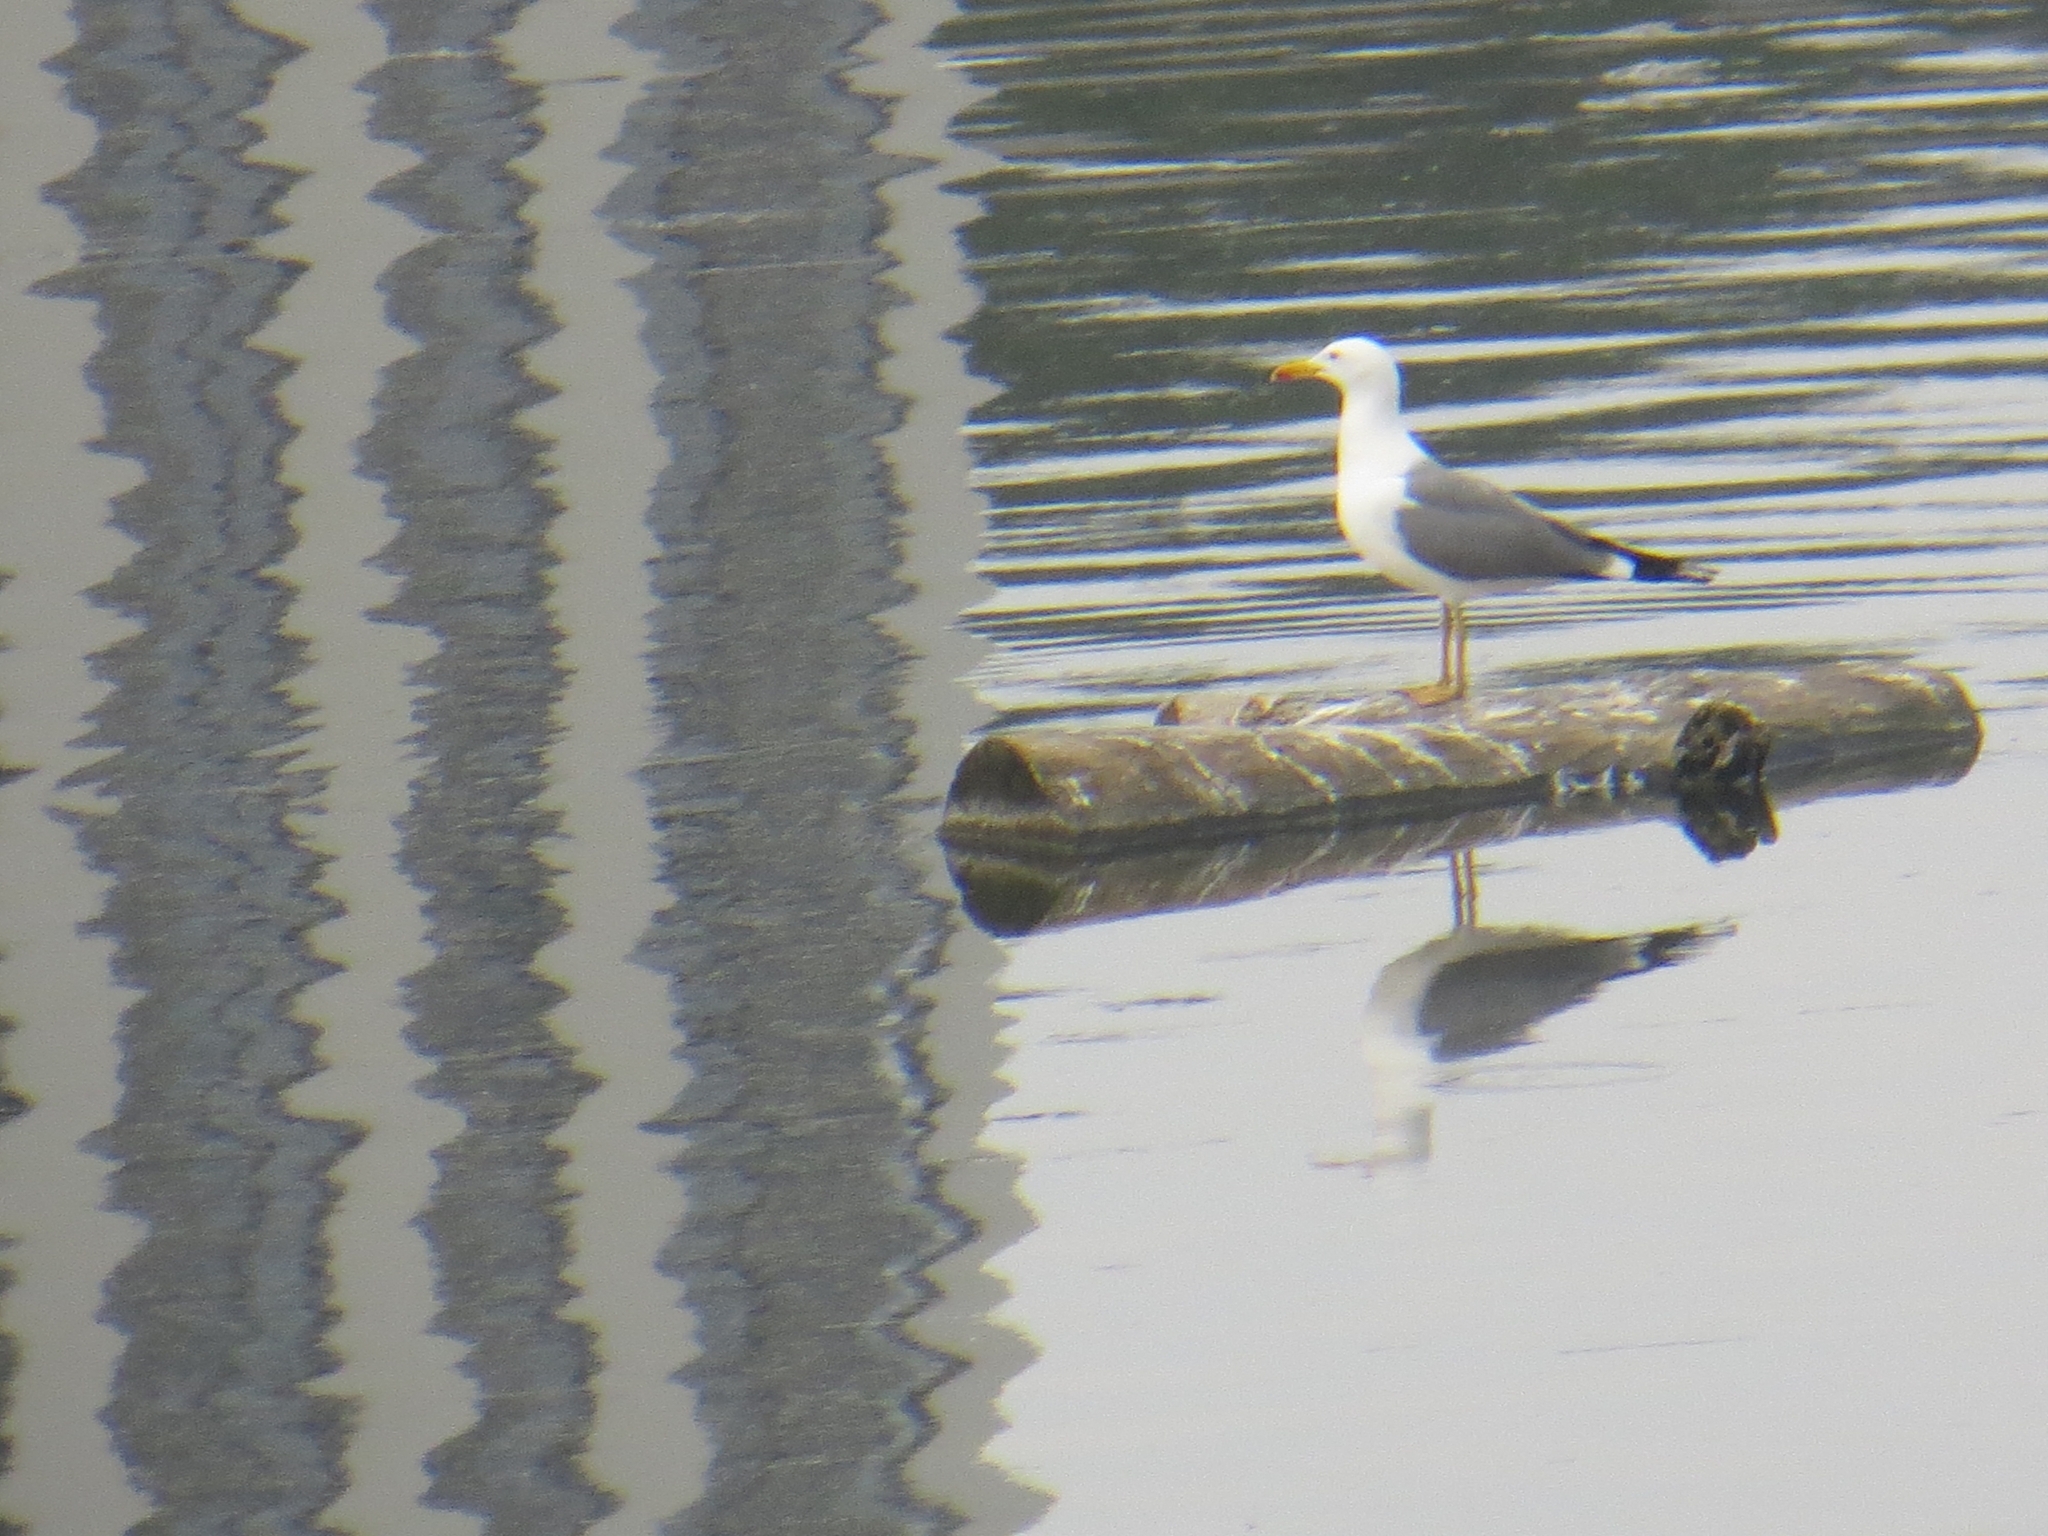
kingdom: Animalia
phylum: Chordata
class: Aves
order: Charadriiformes
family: Laridae
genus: Larus
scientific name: Larus fuscus
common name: Lesser black-backed gull
